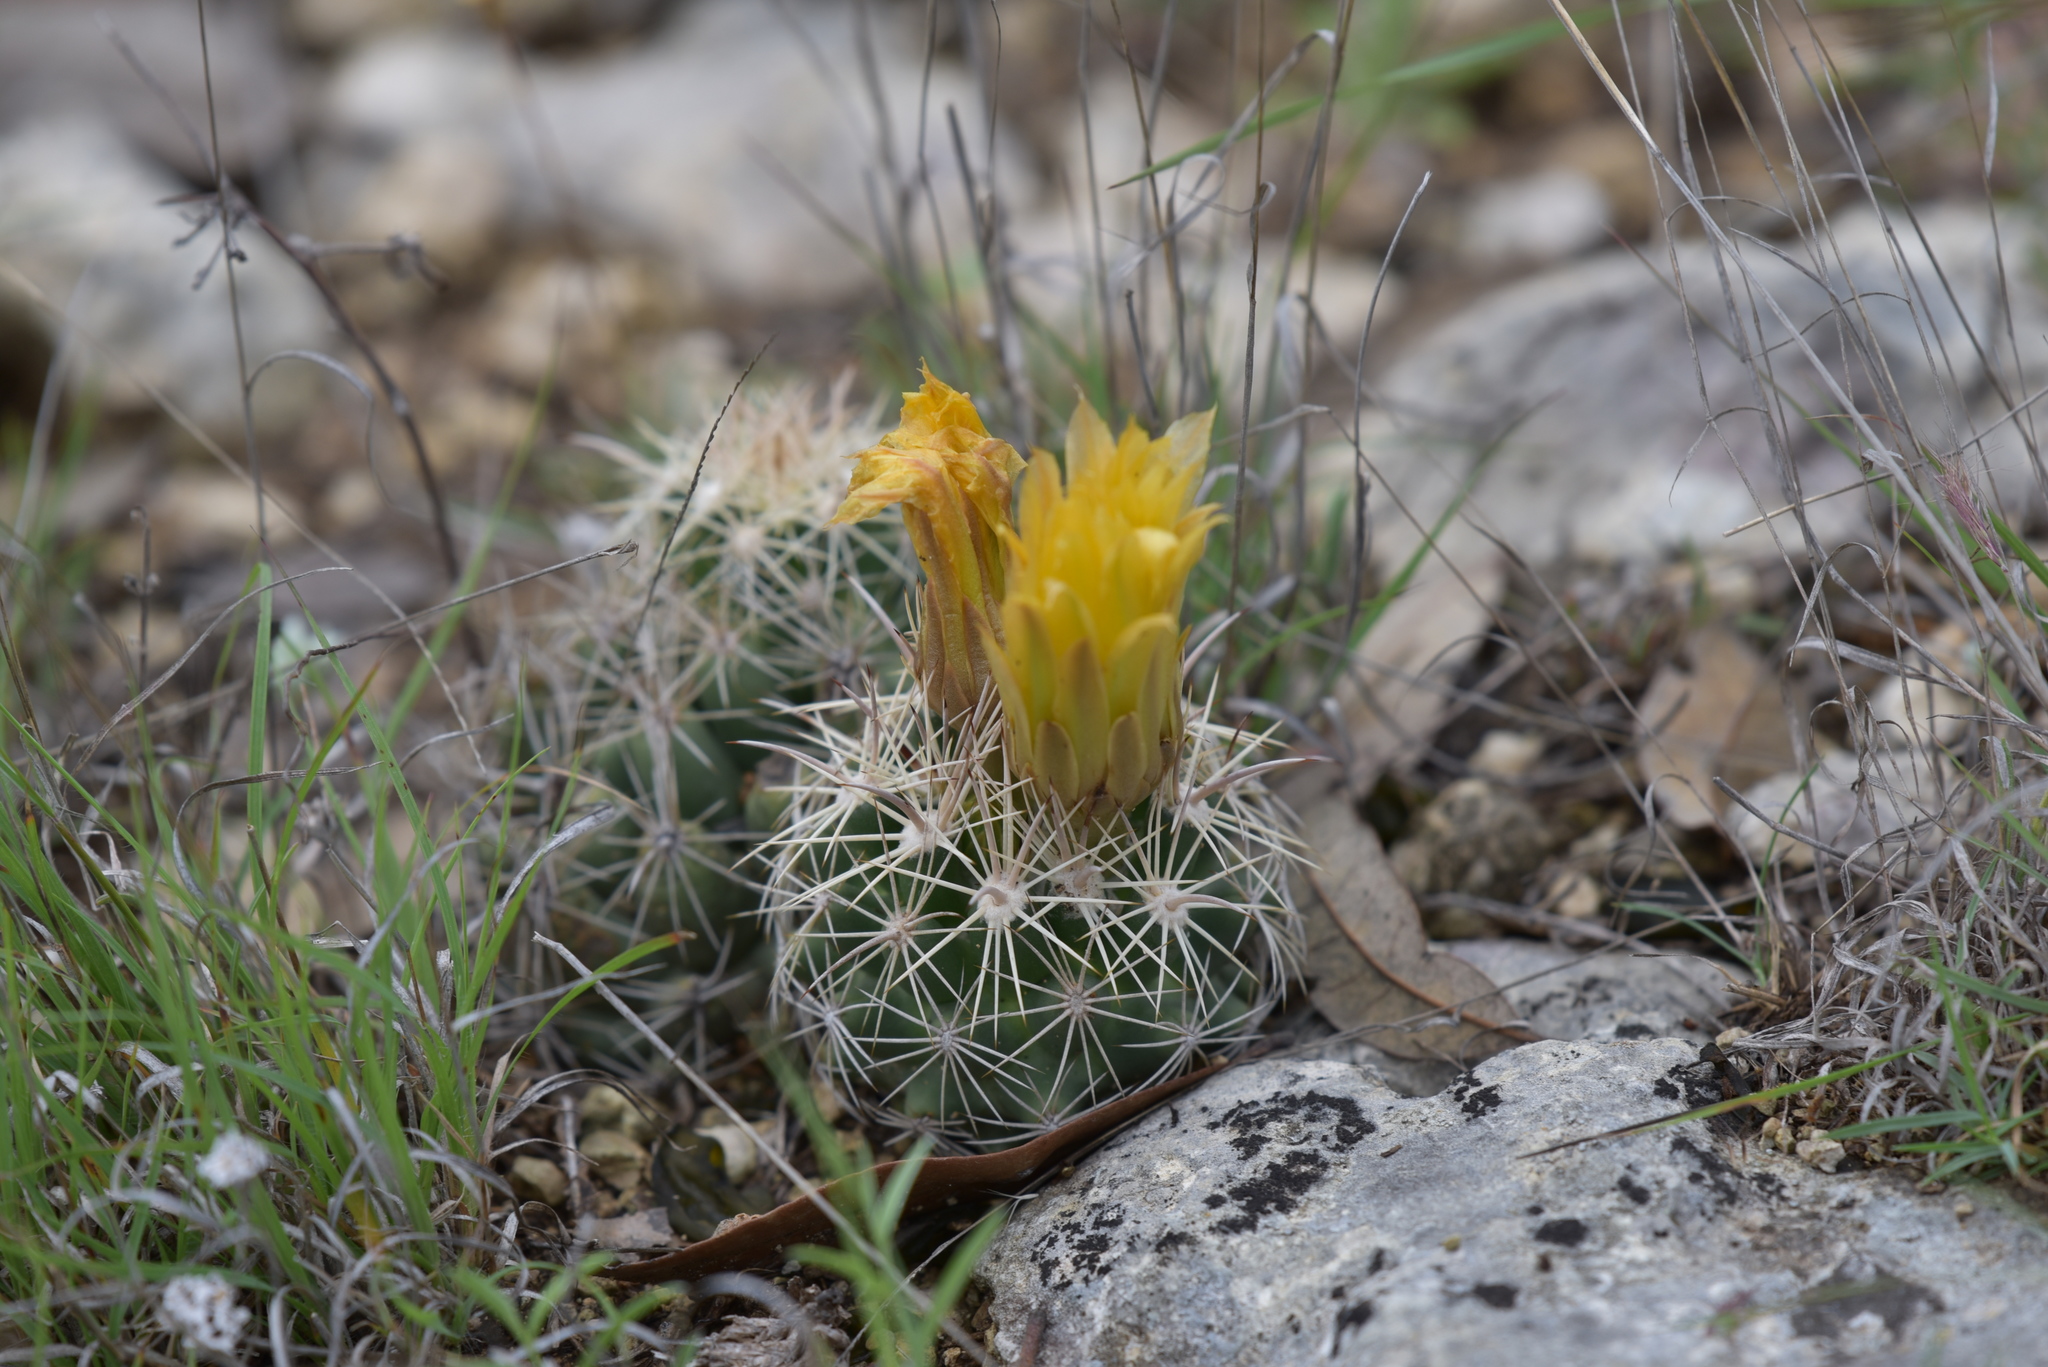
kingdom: Plantae
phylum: Tracheophyta
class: Magnoliopsida
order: Caryophyllales
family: Cactaceae
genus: Coryphantha
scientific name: Coryphantha sulcata
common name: Finger cactus
